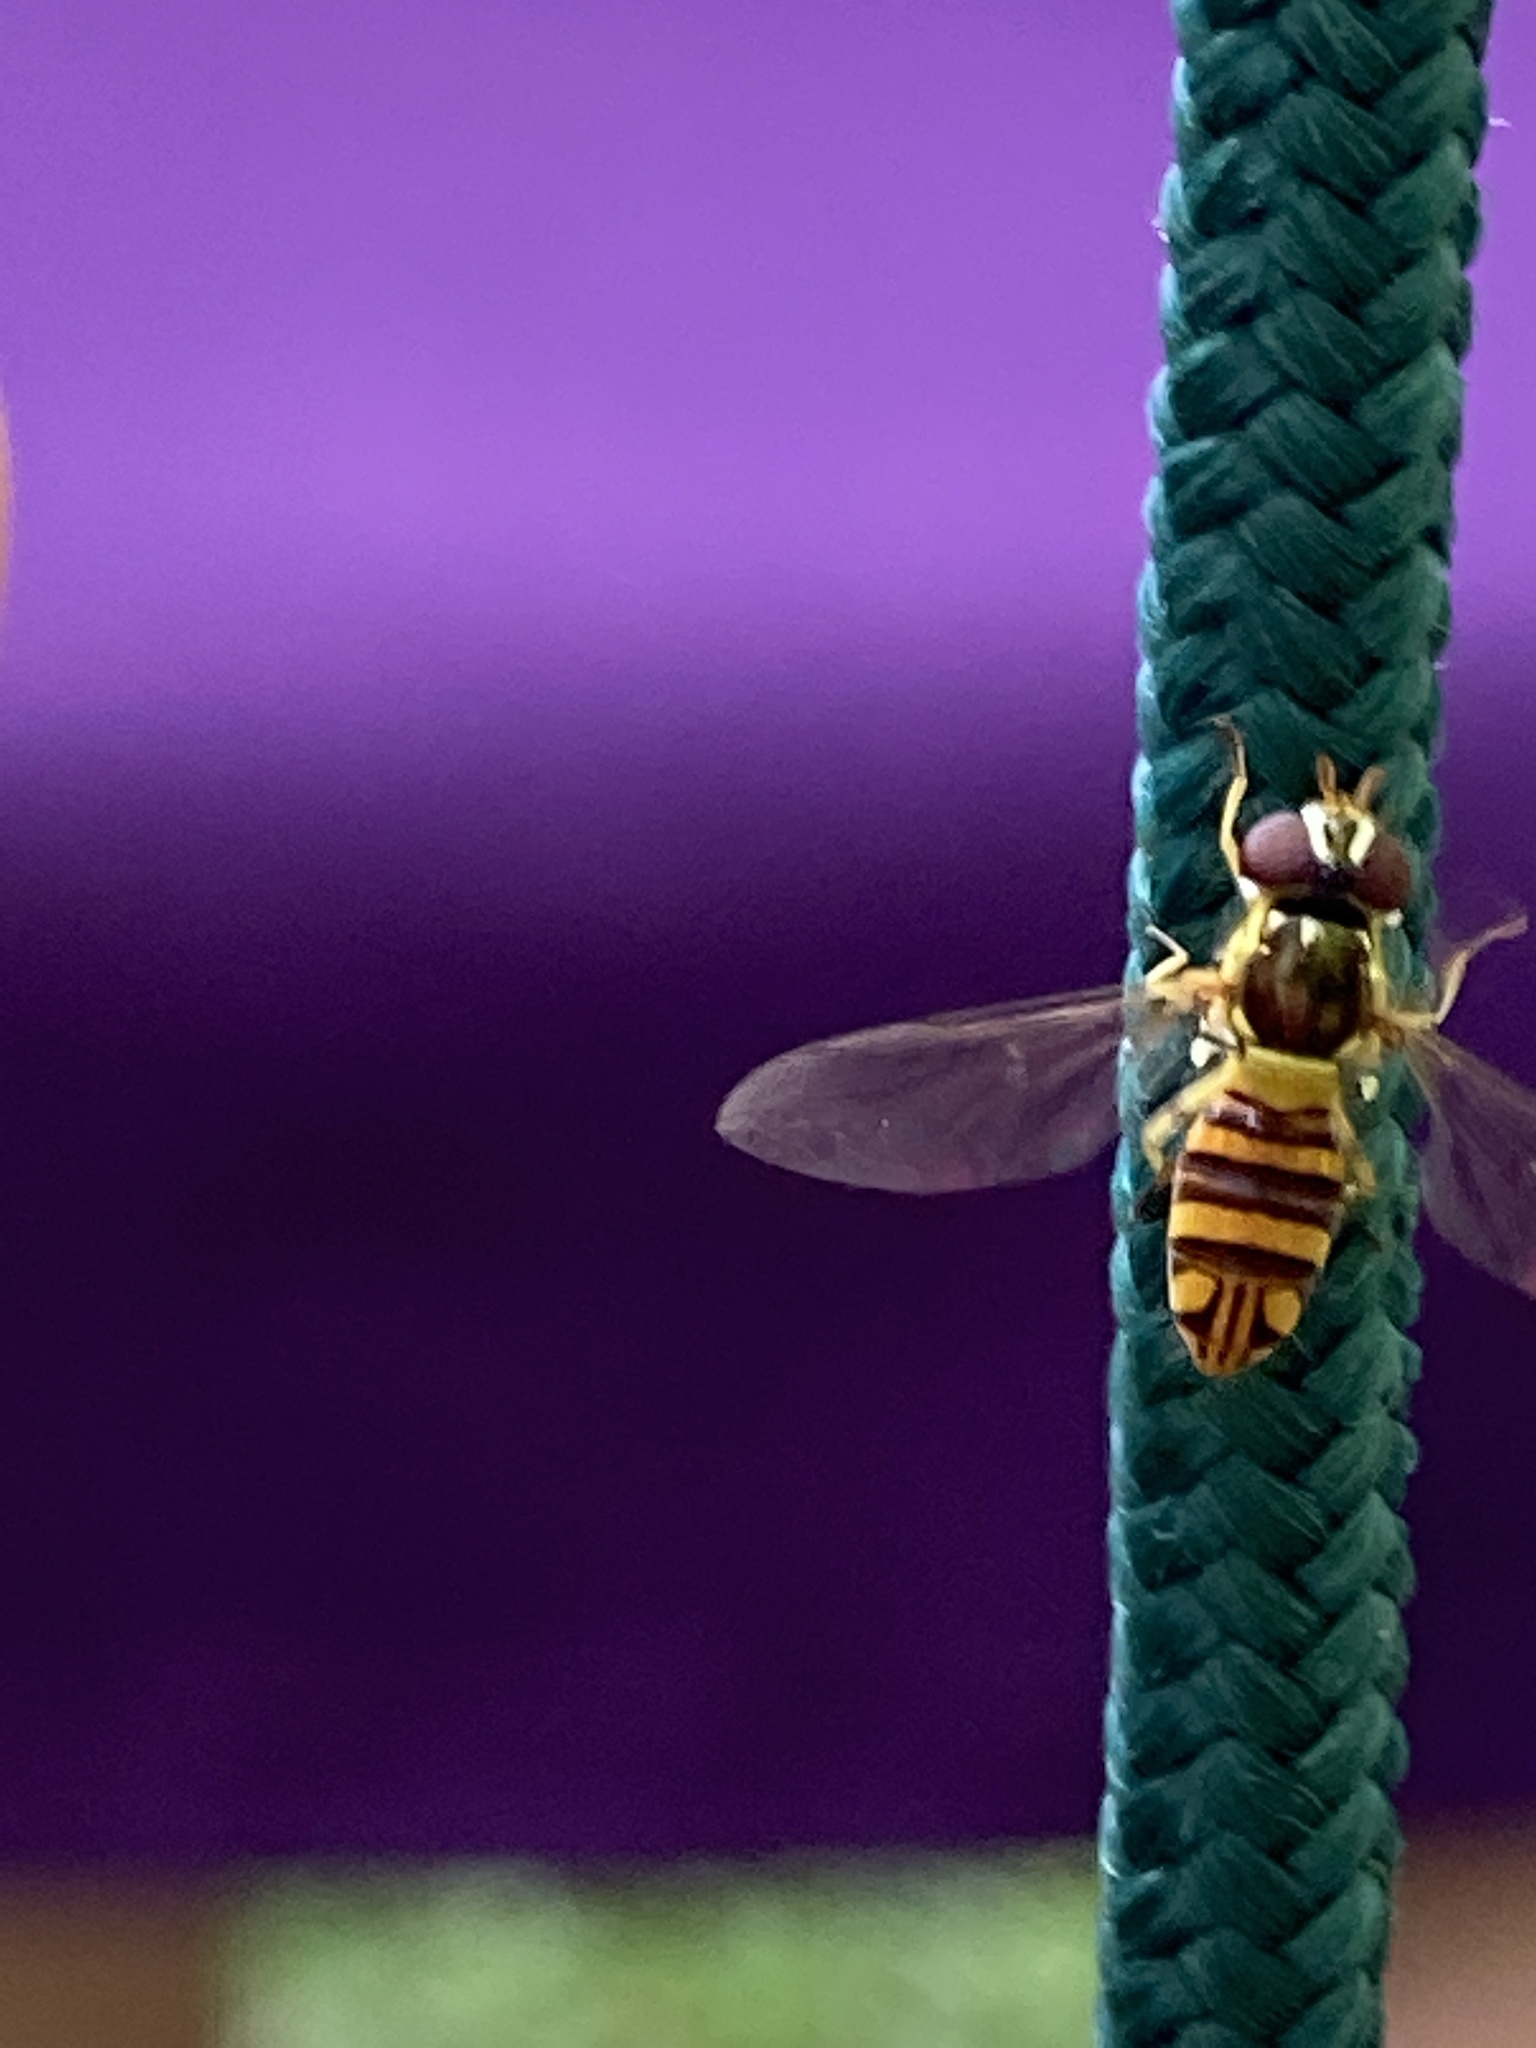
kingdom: Animalia
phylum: Arthropoda
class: Insecta
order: Diptera
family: Syrphidae
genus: Allograpta
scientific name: Allograpta obliqua
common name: Common oblique syrphid
